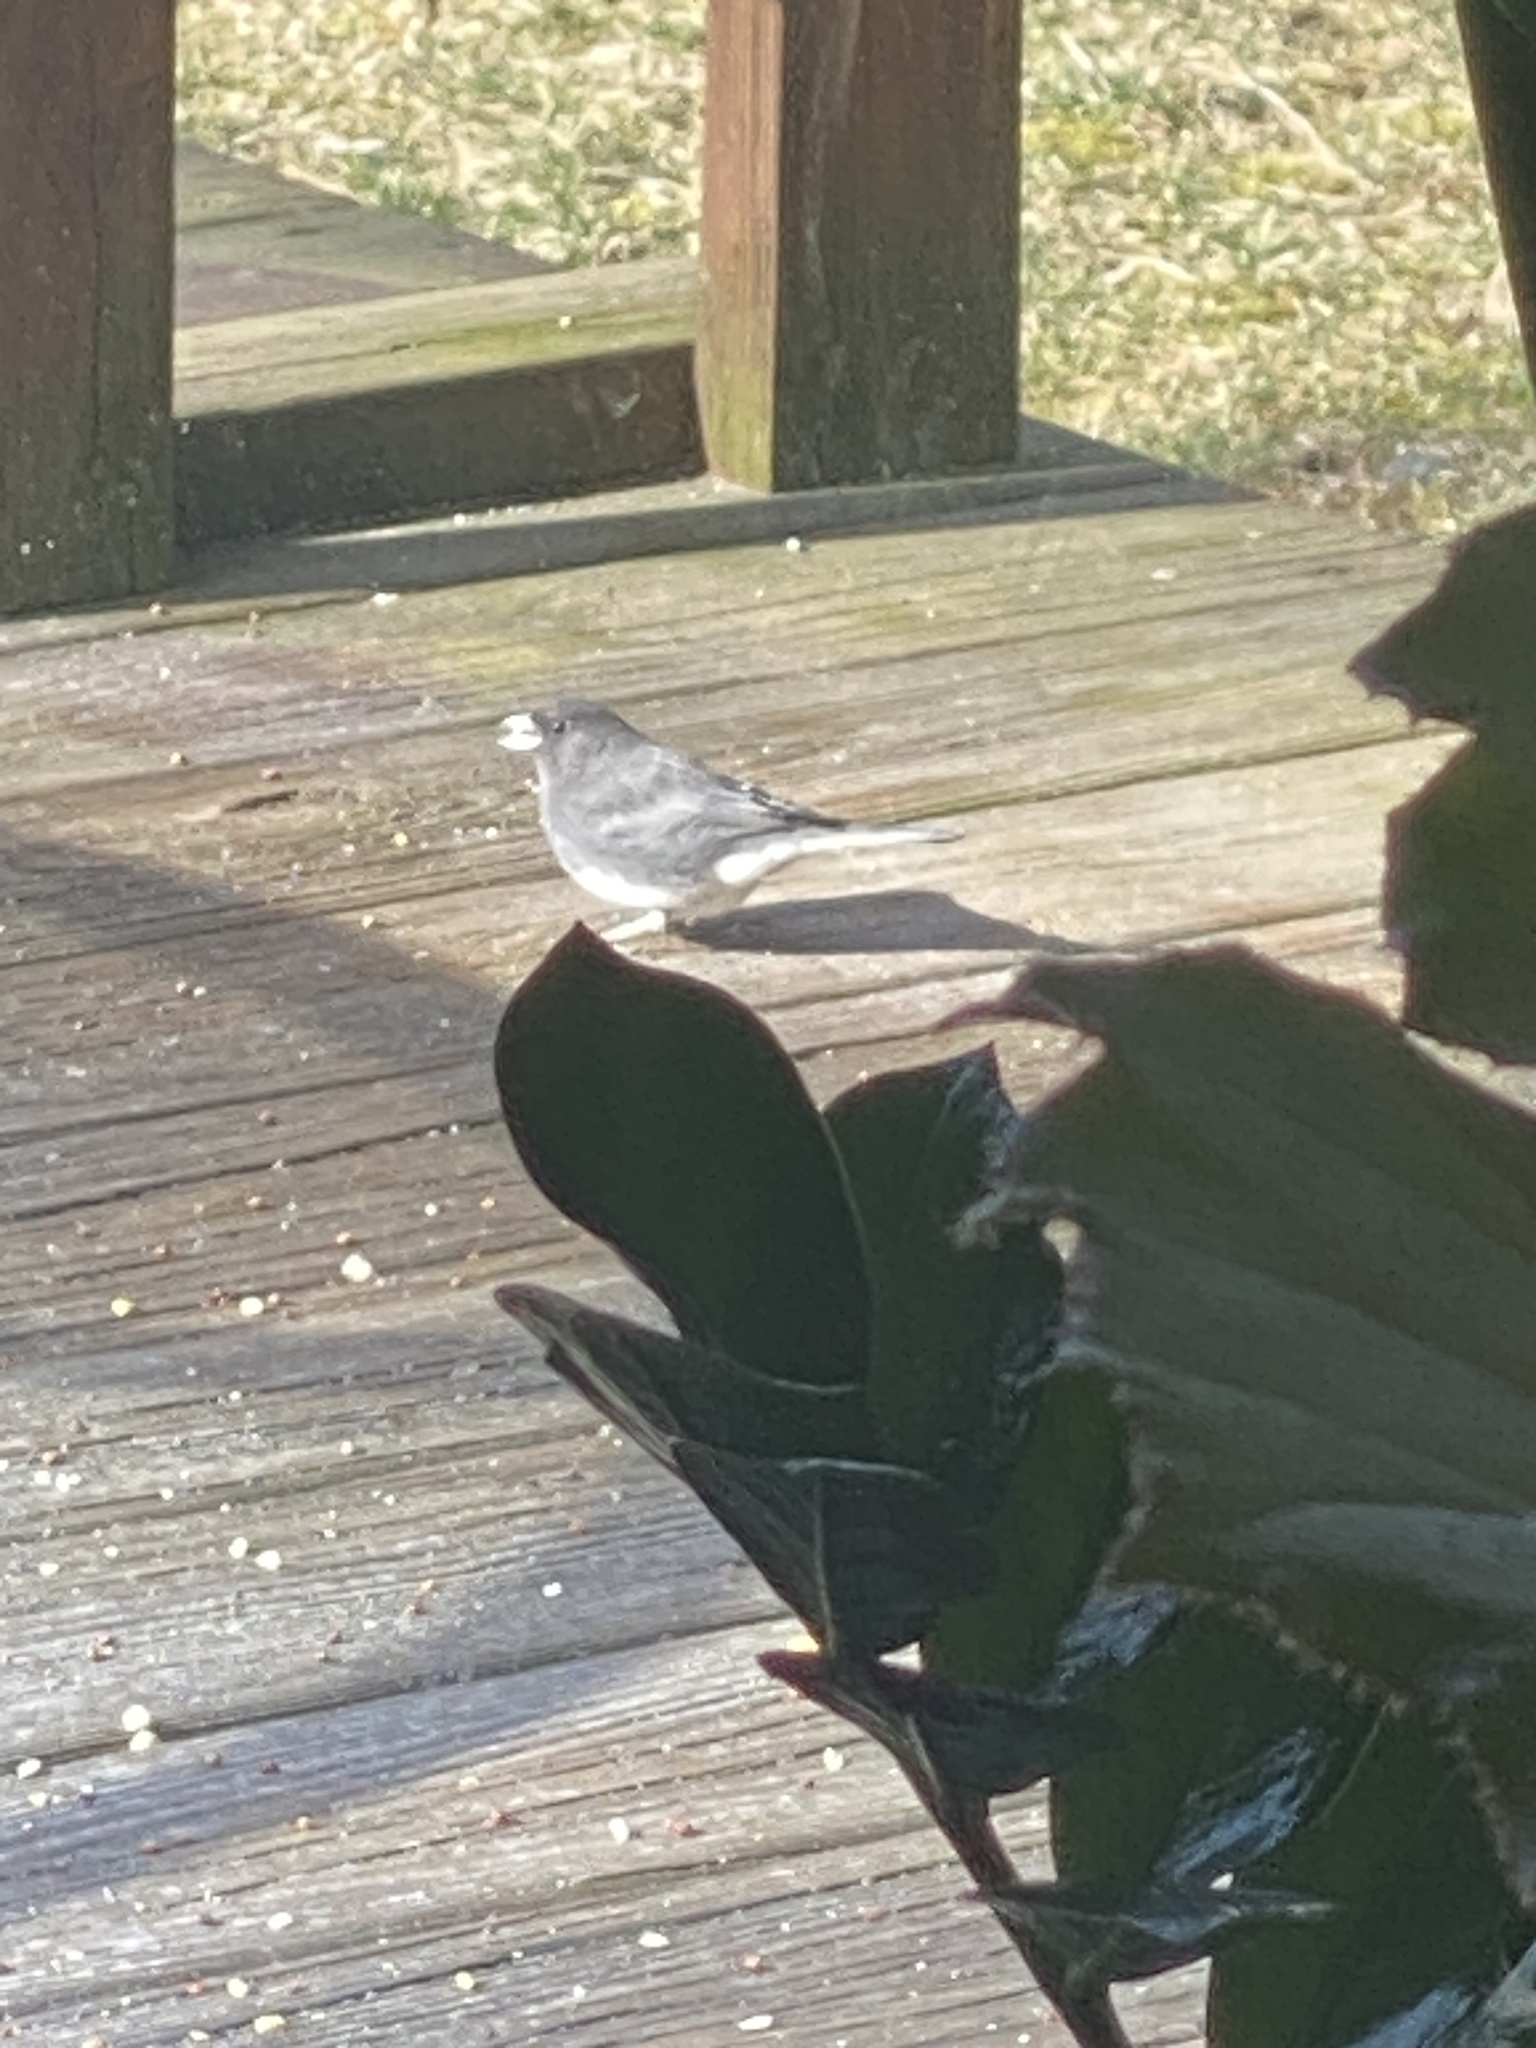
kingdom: Animalia
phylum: Chordata
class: Aves
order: Passeriformes
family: Passerellidae
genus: Junco
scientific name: Junco hyemalis
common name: Dark-eyed junco
